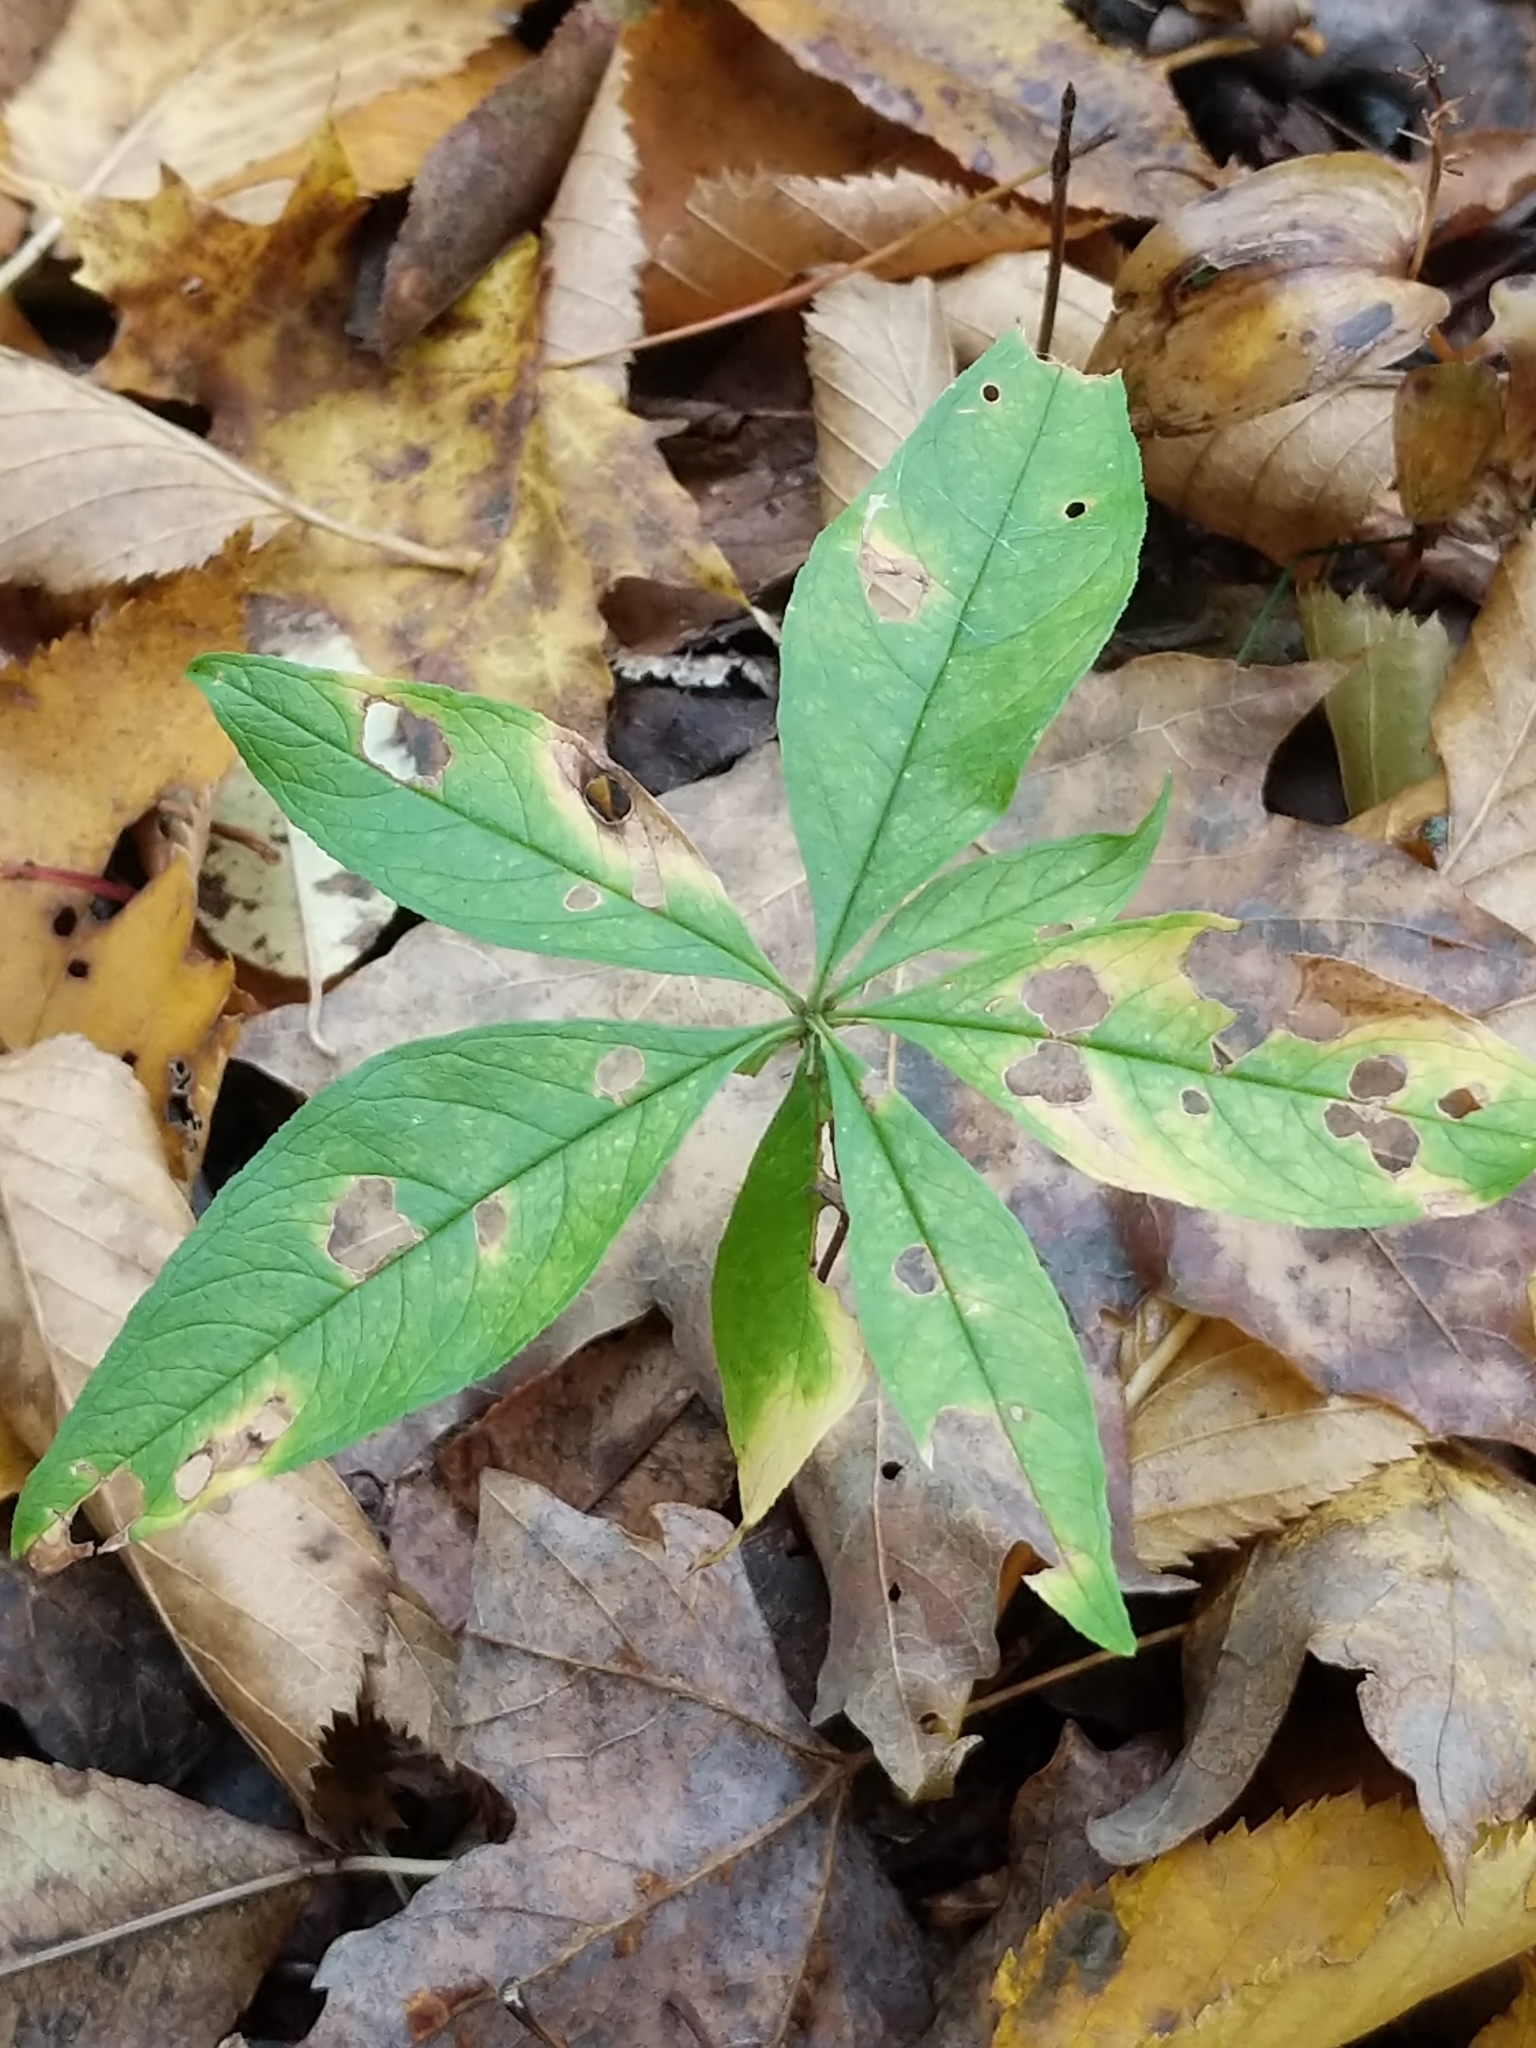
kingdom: Plantae
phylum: Tracheophyta
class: Magnoliopsida
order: Ericales
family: Primulaceae
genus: Lysimachia
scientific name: Lysimachia borealis
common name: American starflower
